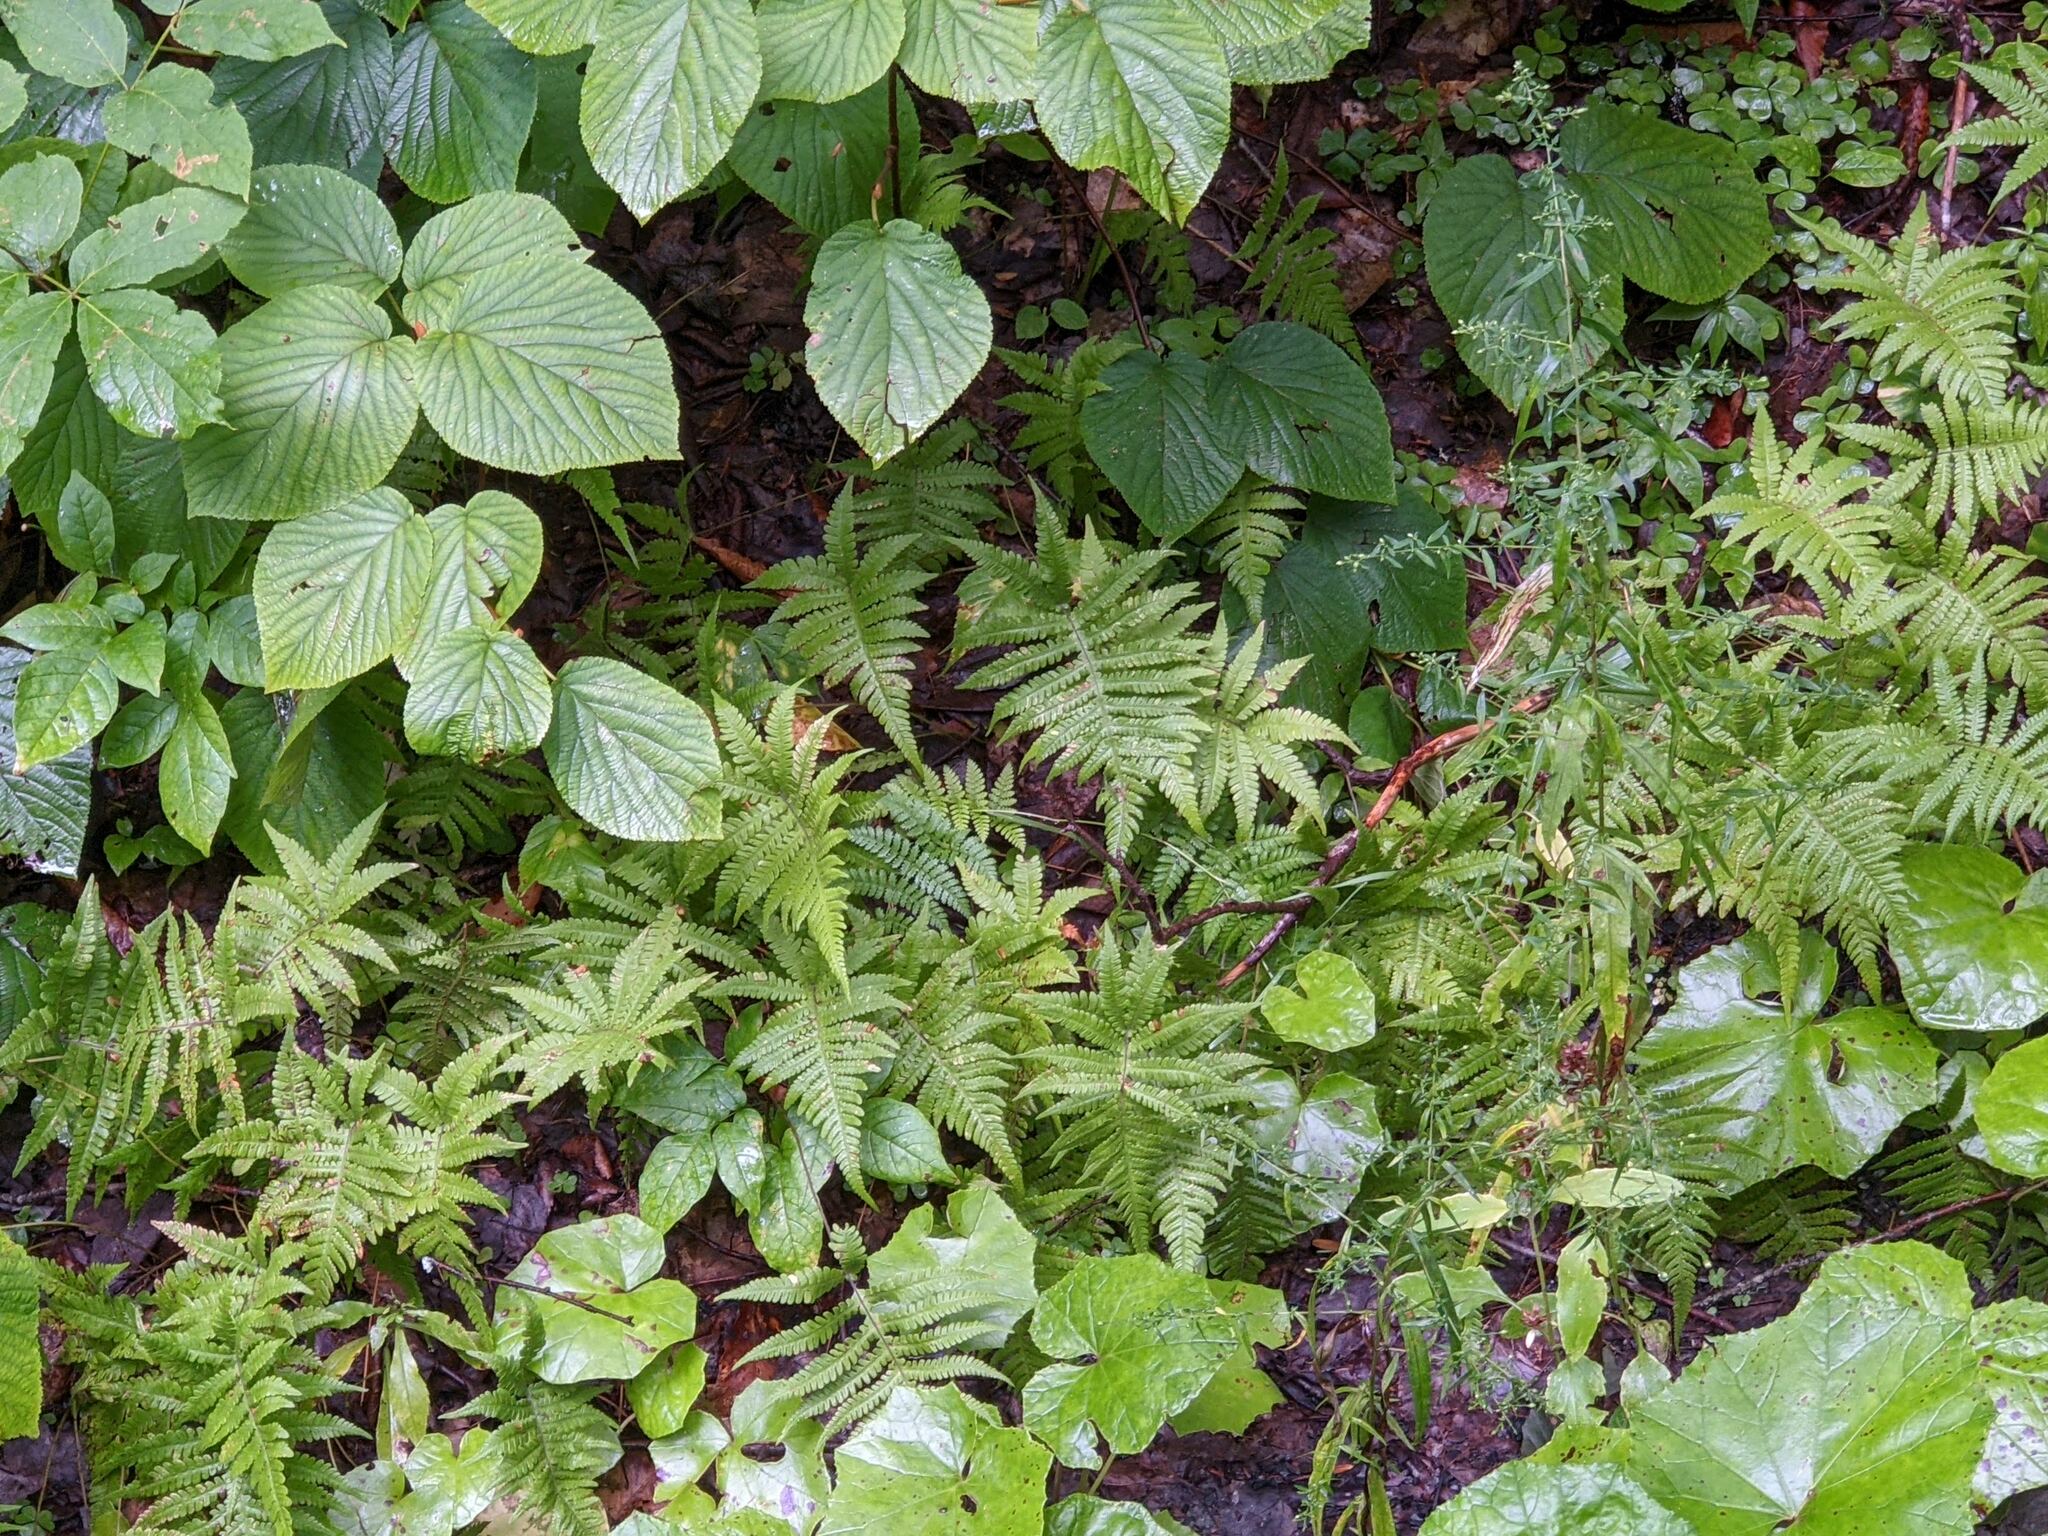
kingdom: Plantae
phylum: Tracheophyta
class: Polypodiopsida
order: Polypodiales
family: Thelypteridaceae
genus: Phegopteris
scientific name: Phegopteris connectilis
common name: Beech fern
